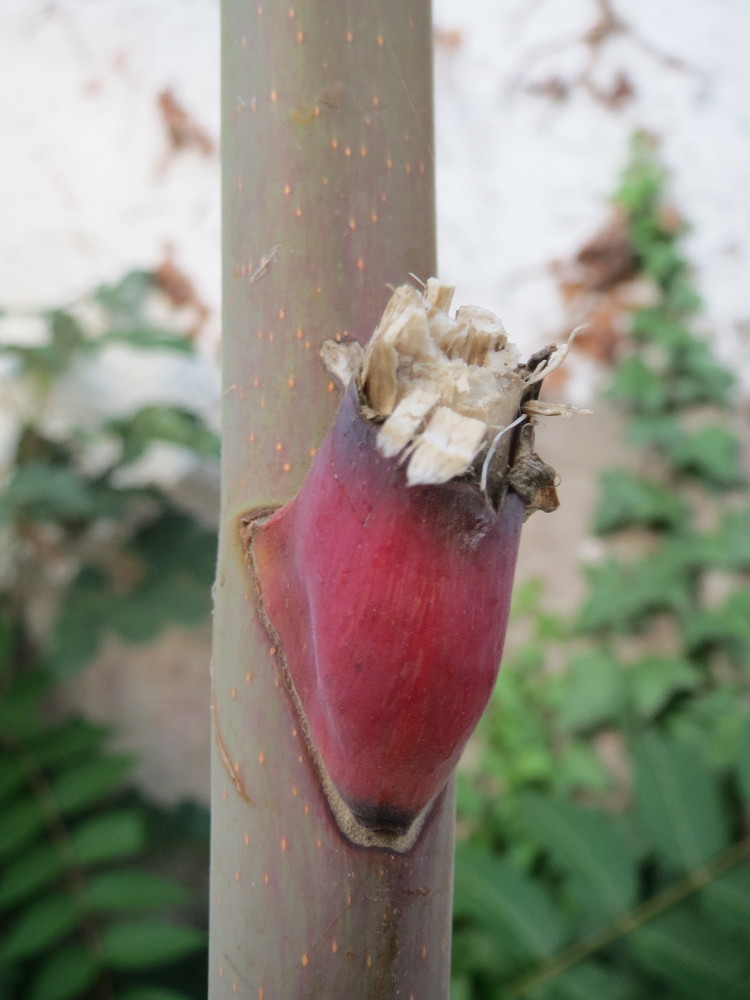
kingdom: Plantae
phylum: Tracheophyta
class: Magnoliopsida
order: Sapindales
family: Simaroubaceae
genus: Ailanthus
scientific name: Ailanthus altissima
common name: Tree-of-heaven
